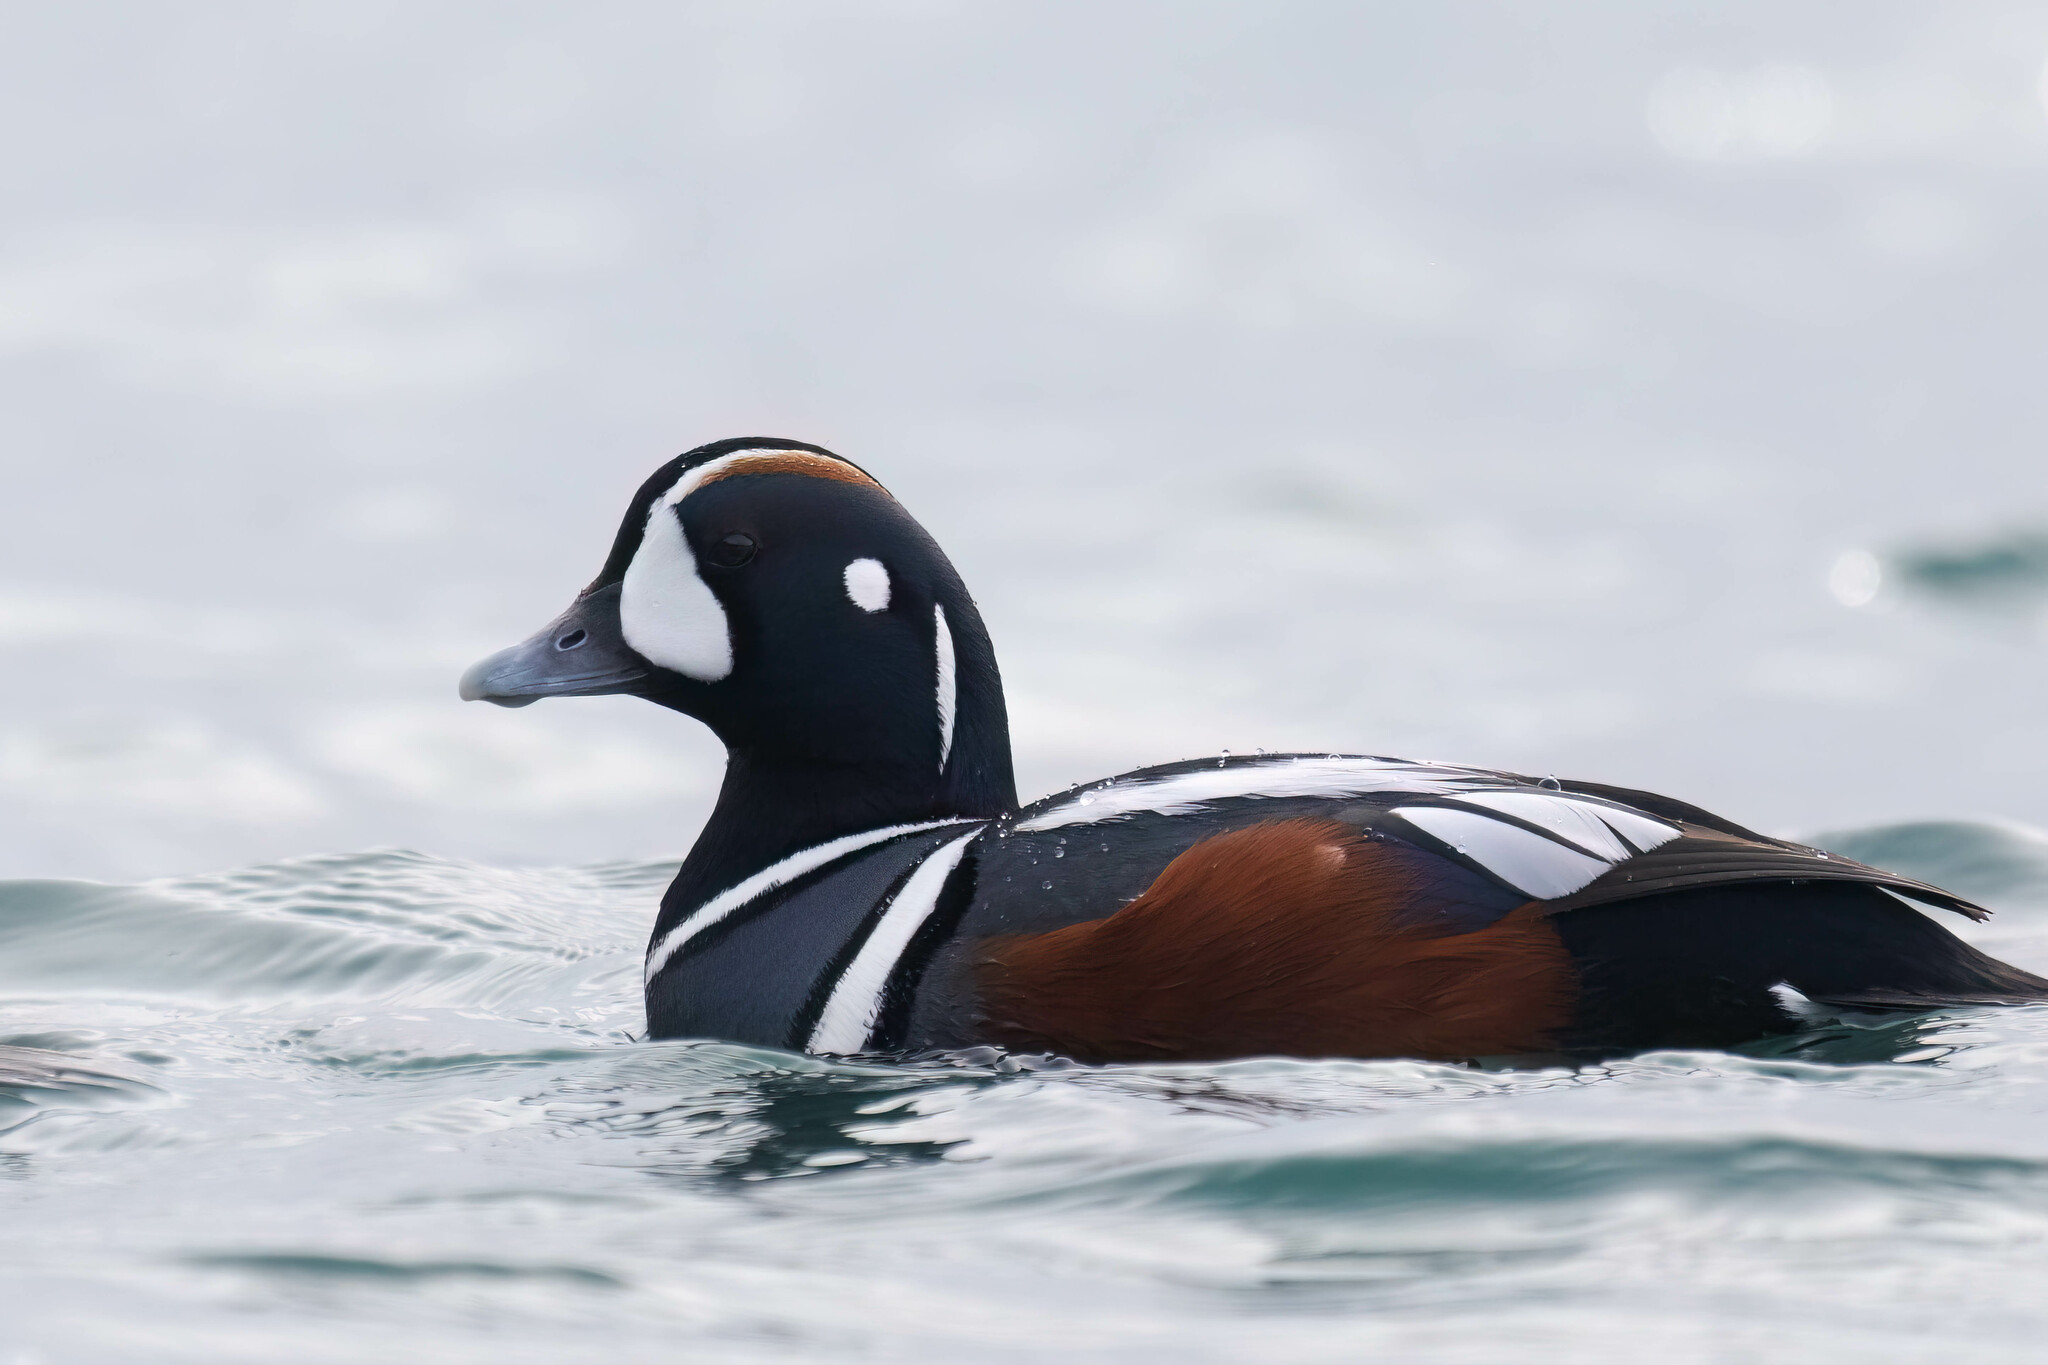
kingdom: Animalia
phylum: Chordata
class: Aves
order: Anseriformes
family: Anatidae
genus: Histrionicus
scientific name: Histrionicus histrionicus
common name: Harlequin duck
